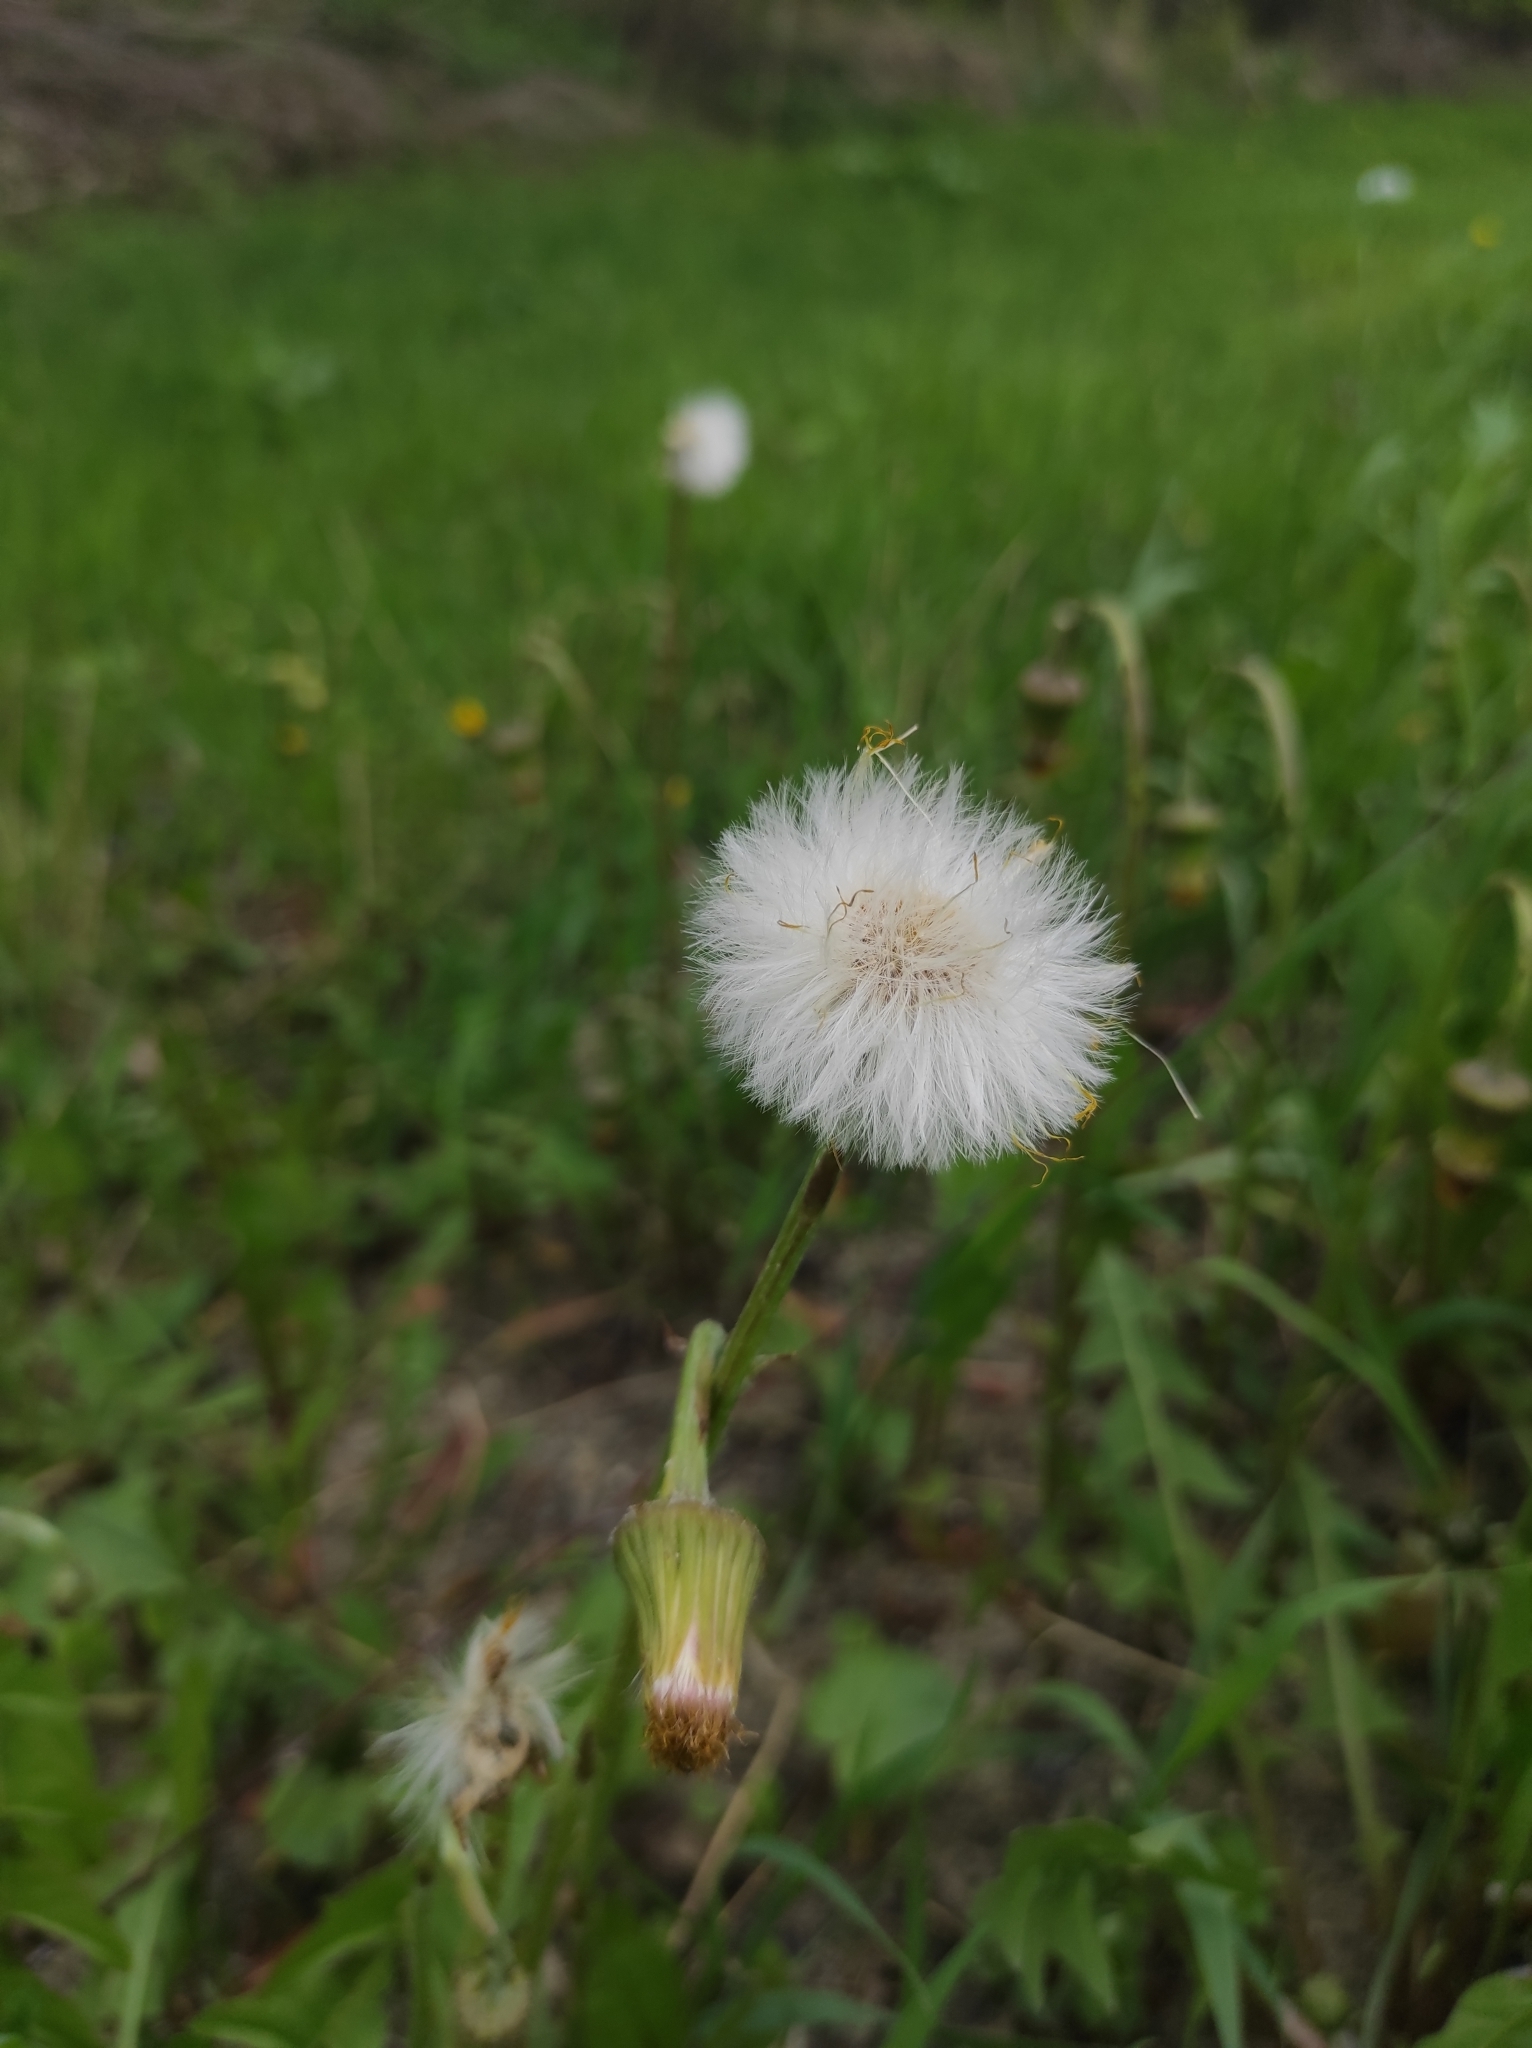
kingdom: Plantae
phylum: Tracheophyta
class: Magnoliopsida
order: Asterales
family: Asteraceae
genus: Tussilago
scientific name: Tussilago farfara
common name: Coltsfoot
